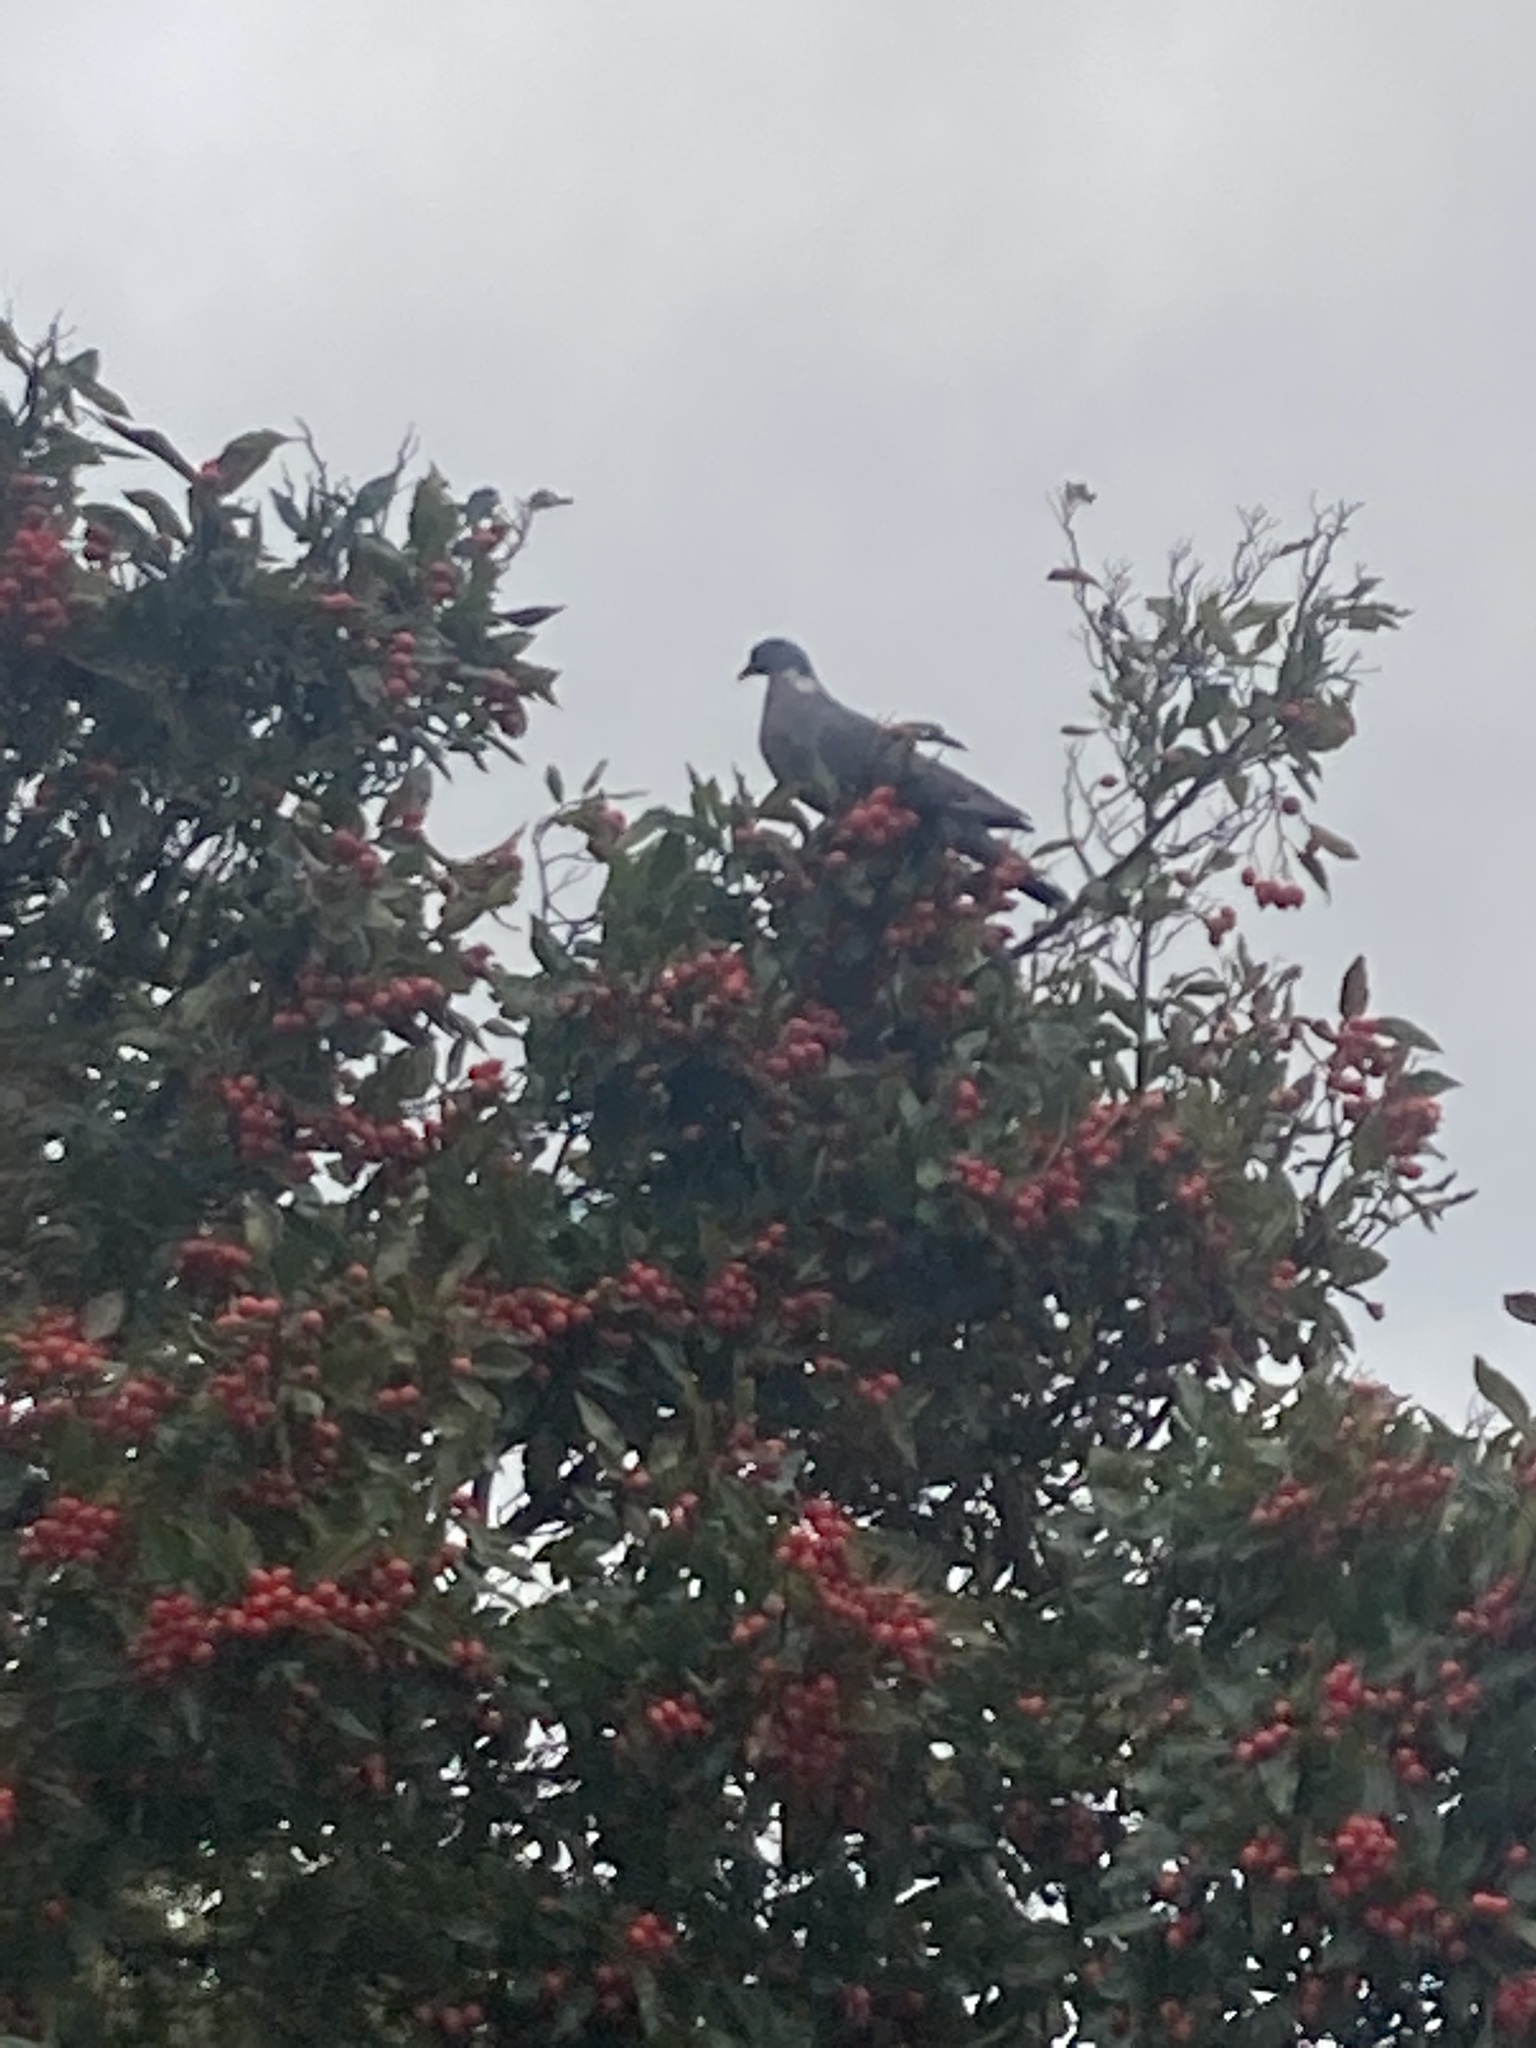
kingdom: Animalia
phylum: Chordata
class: Aves
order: Columbiformes
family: Columbidae
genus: Columba
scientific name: Columba palumbus
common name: Common wood pigeon
